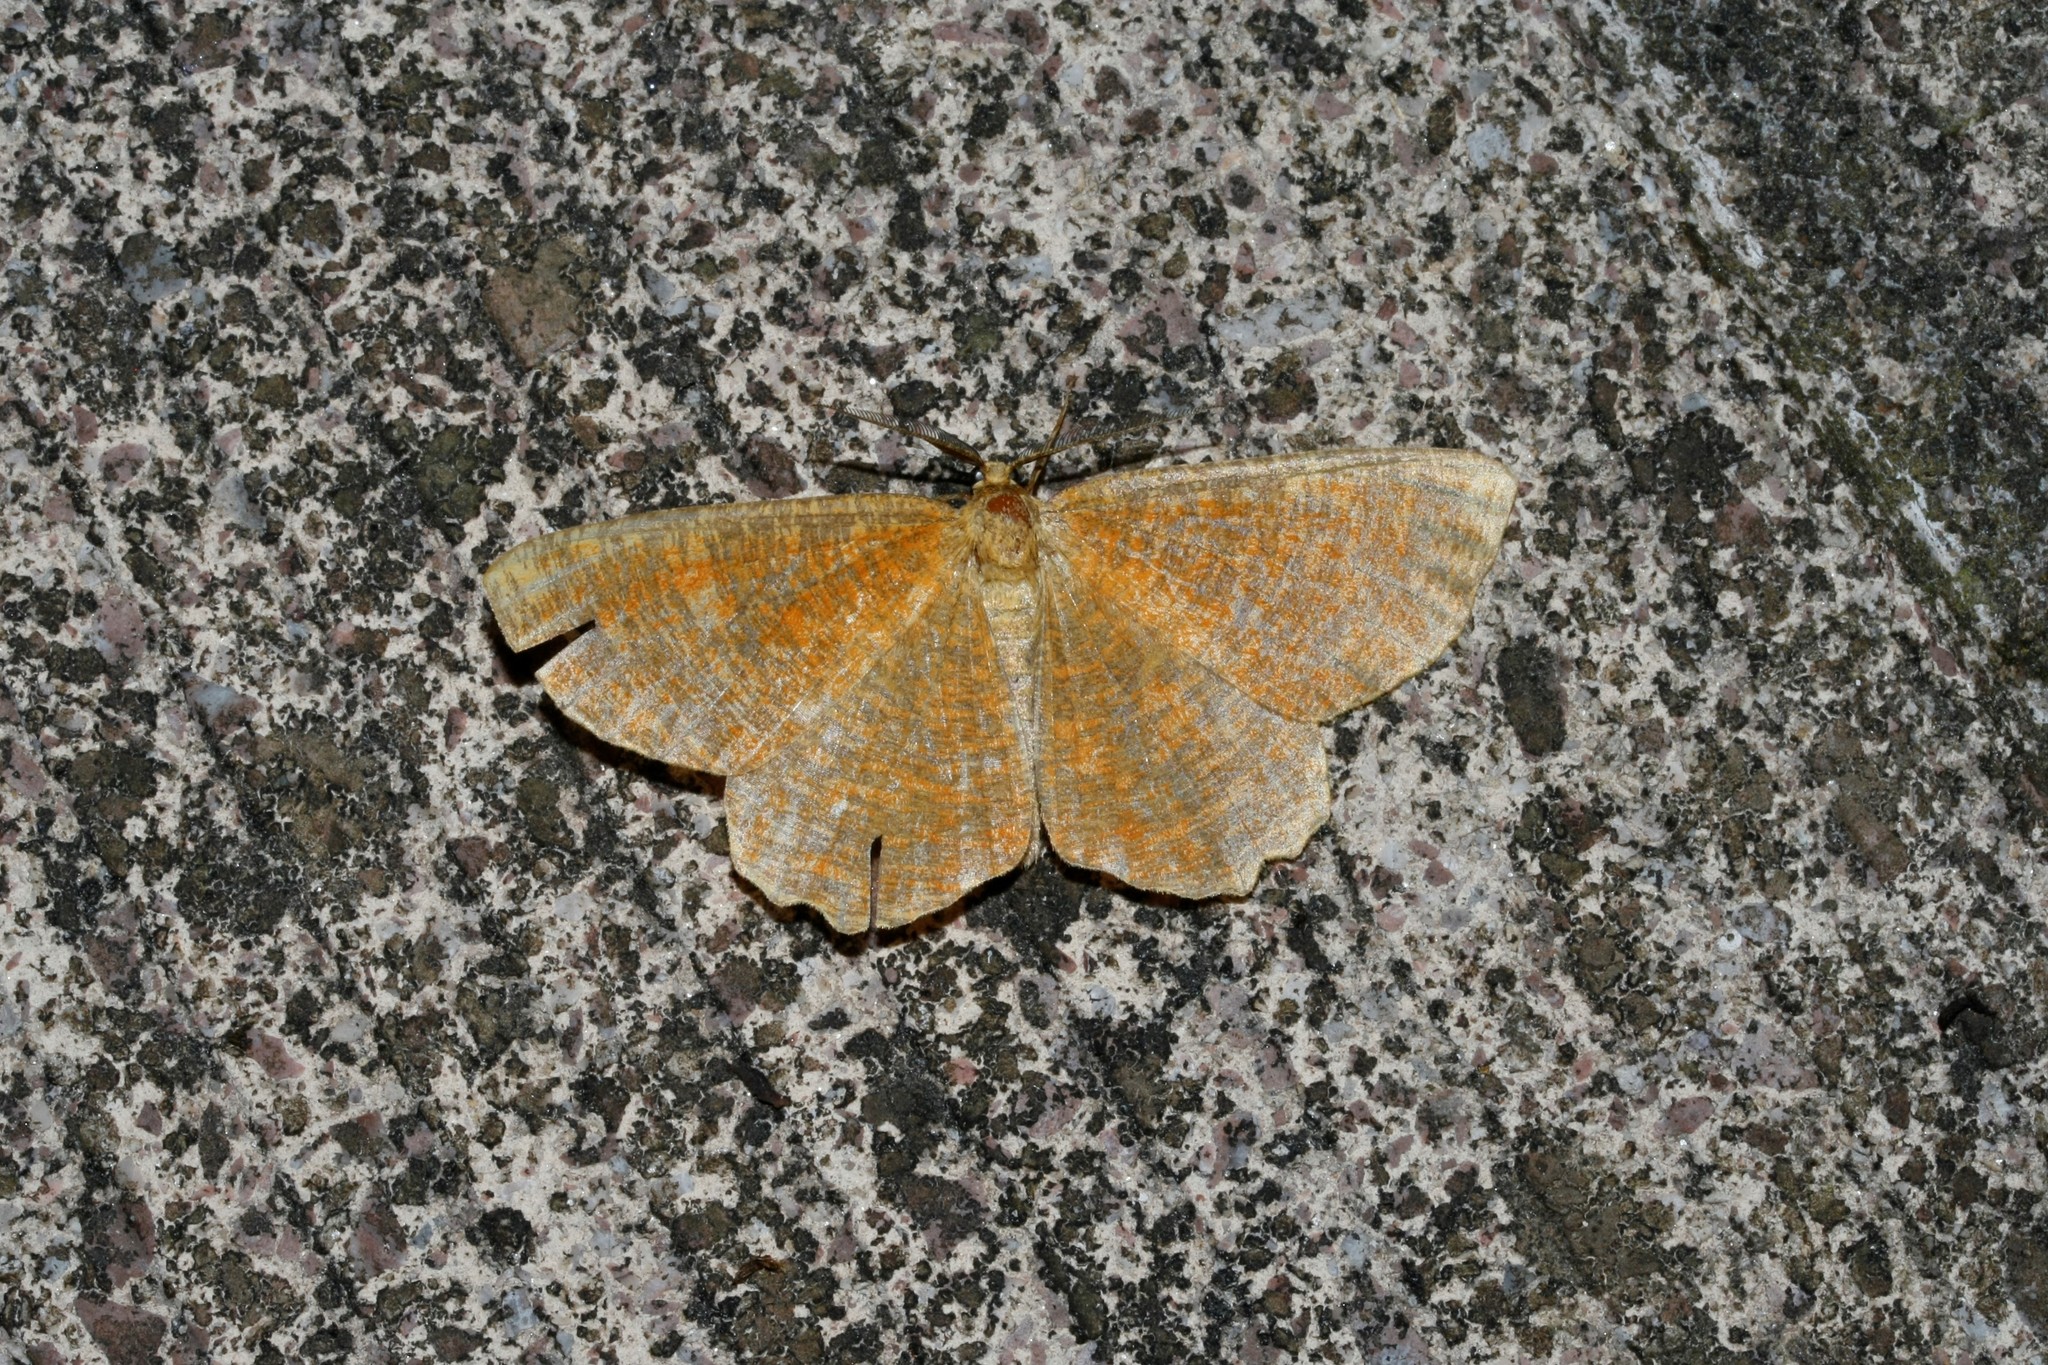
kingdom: Animalia
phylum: Arthropoda
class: Insecta
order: Lepidoptera
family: Geometridae
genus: Angerona
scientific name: Angerona prunaria
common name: Orange moth
